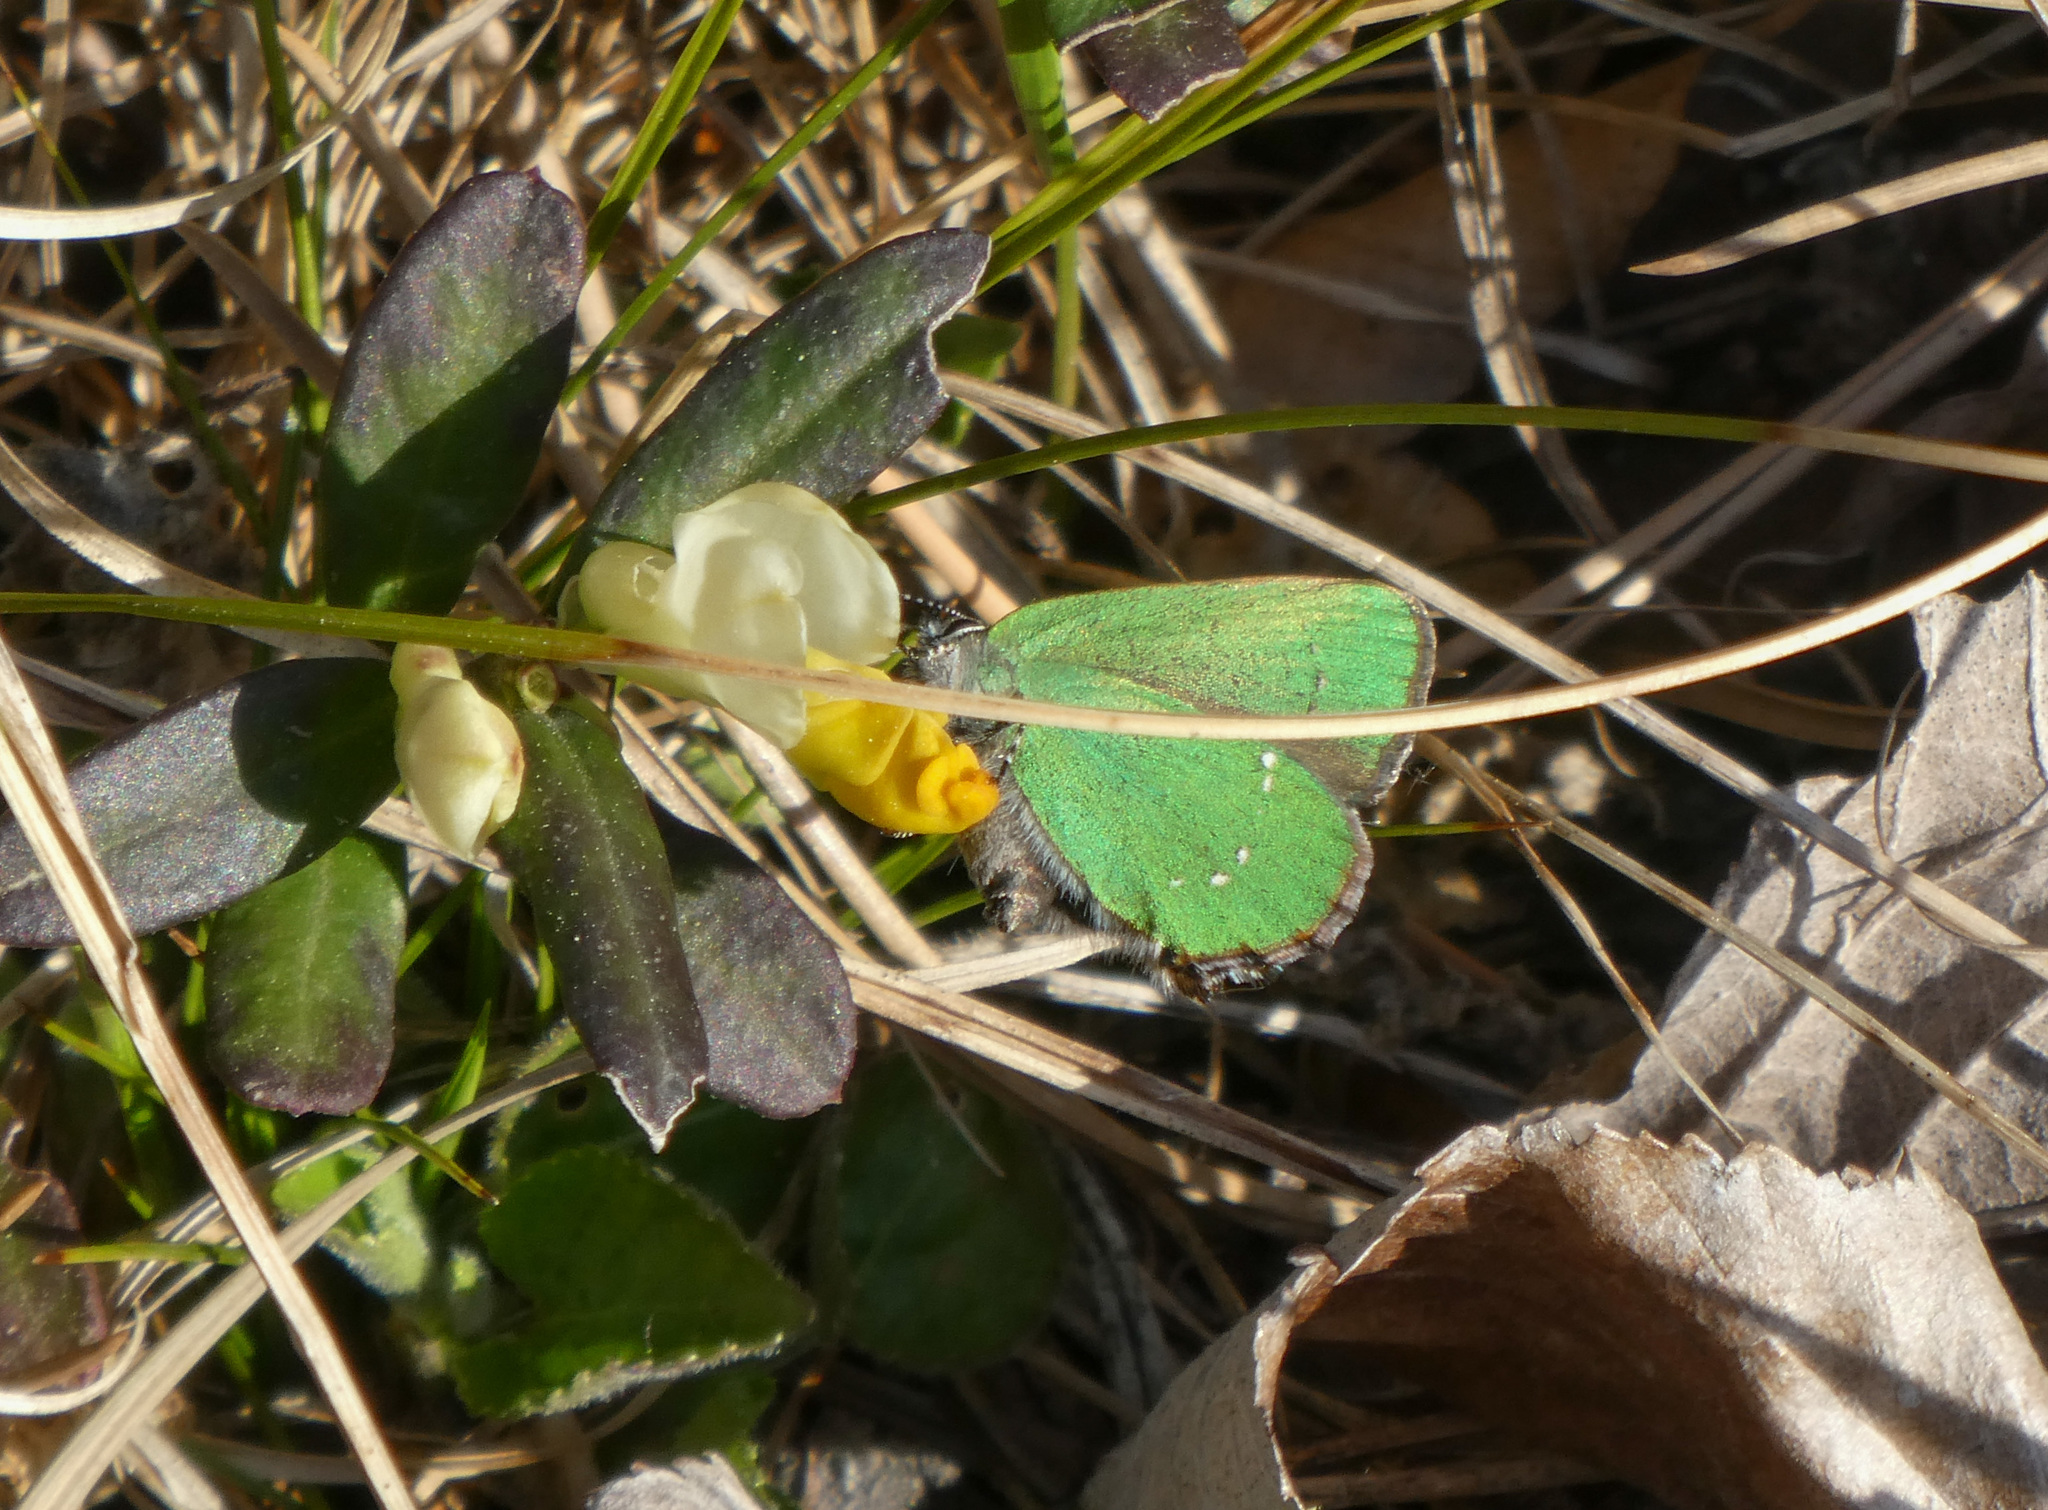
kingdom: Animalia
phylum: Arthropoda
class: Insecta
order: Lepidoptera
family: Lycaenidae
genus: Callophrys
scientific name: Callophrys rubi
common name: Green hairstreak
